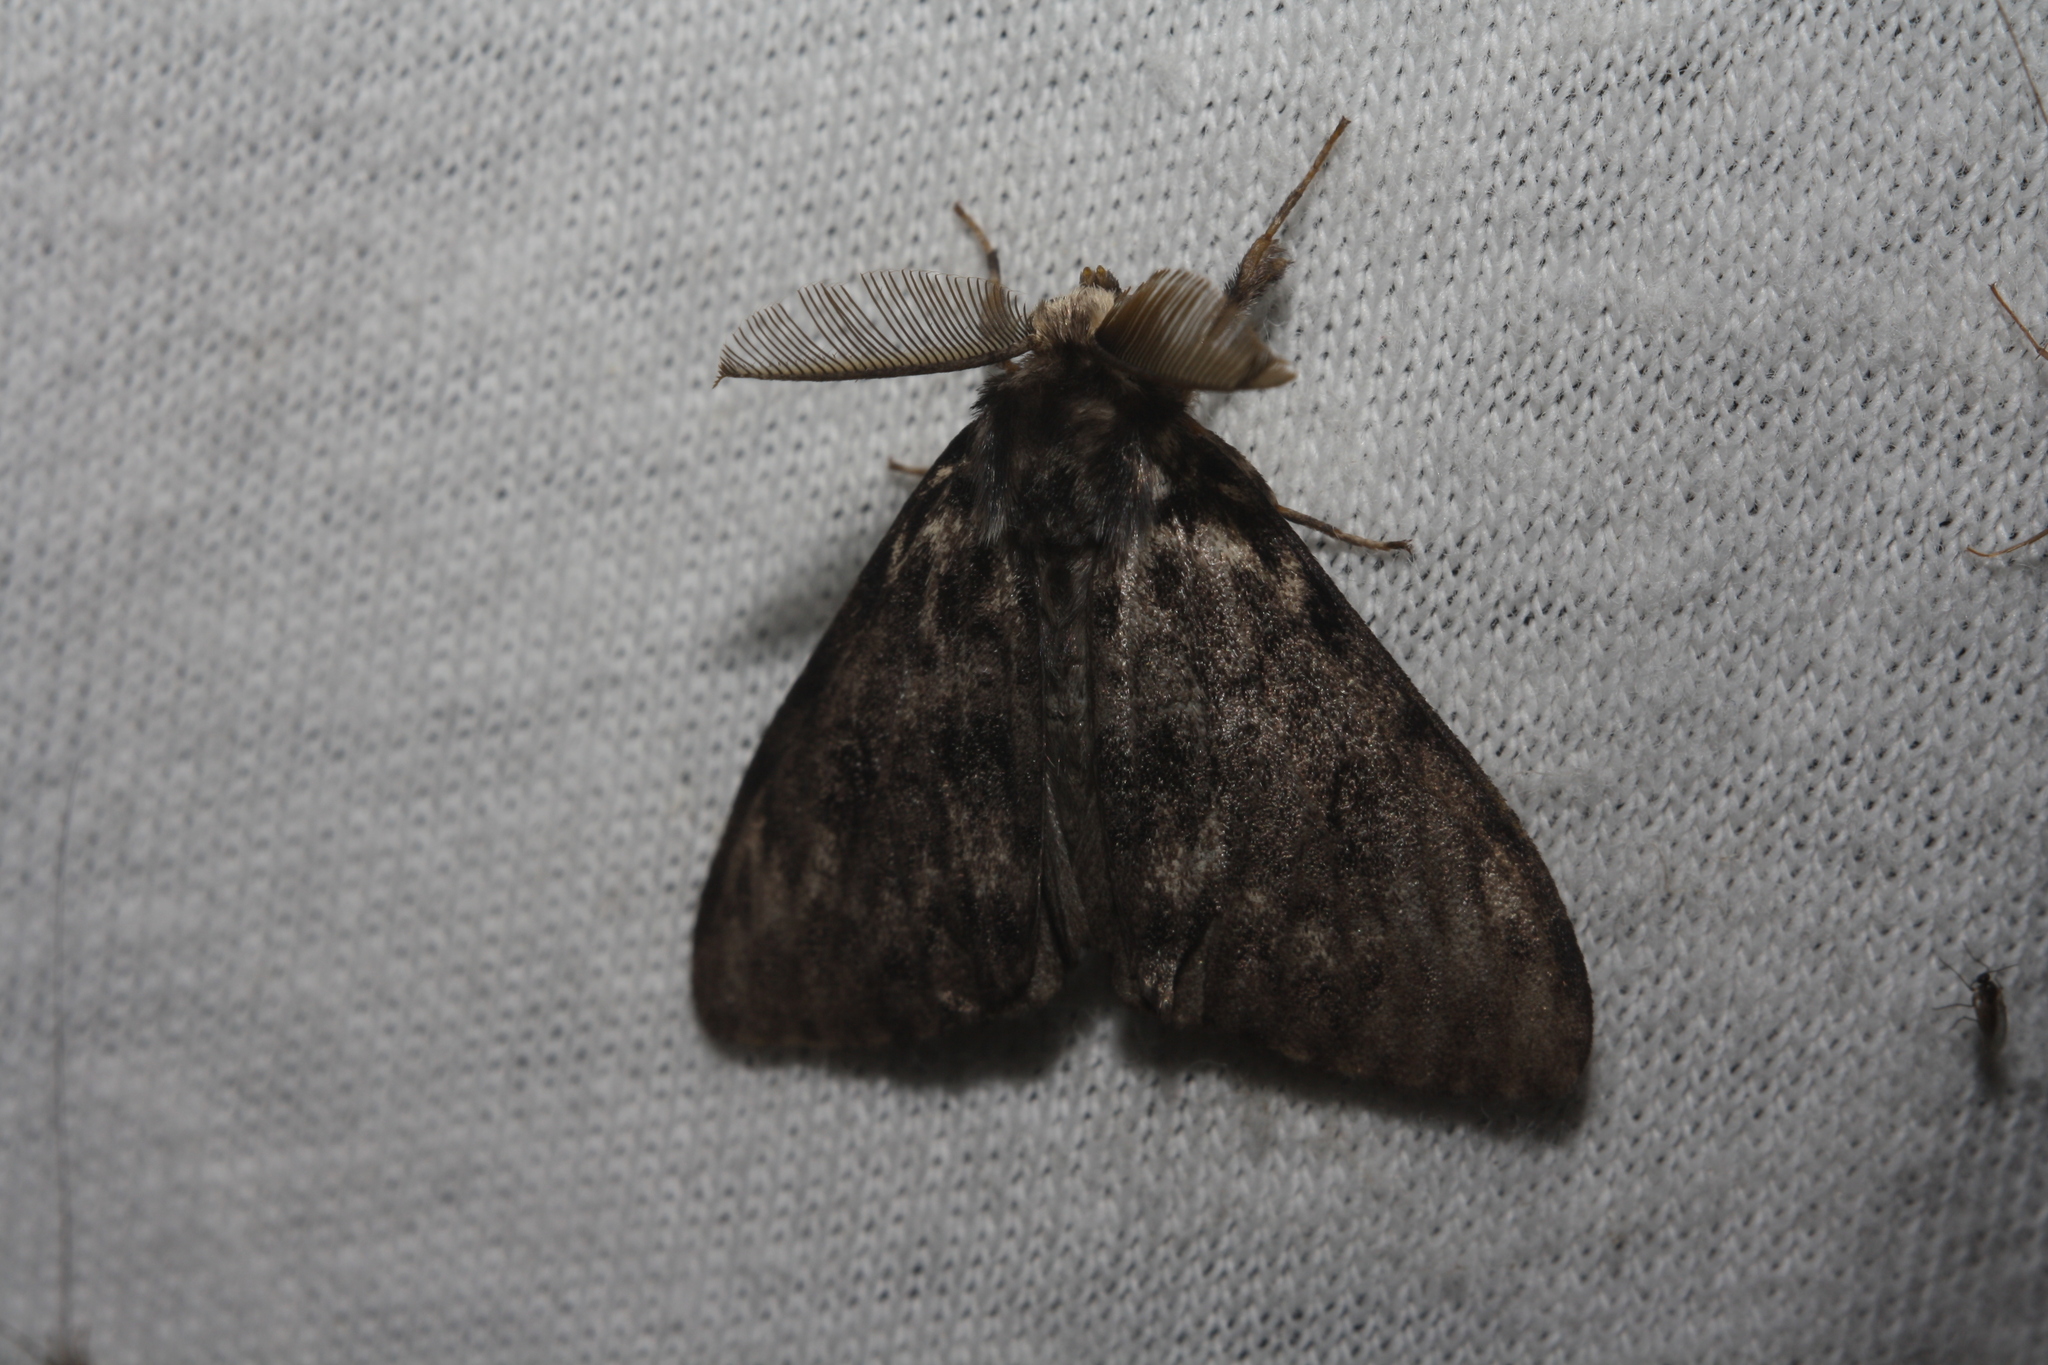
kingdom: Animalia
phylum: Arthropoda
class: Insecta
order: Lepidoptera
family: Erebidae
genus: Lymantria
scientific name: Lymantria dispar
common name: Gypsy moth
